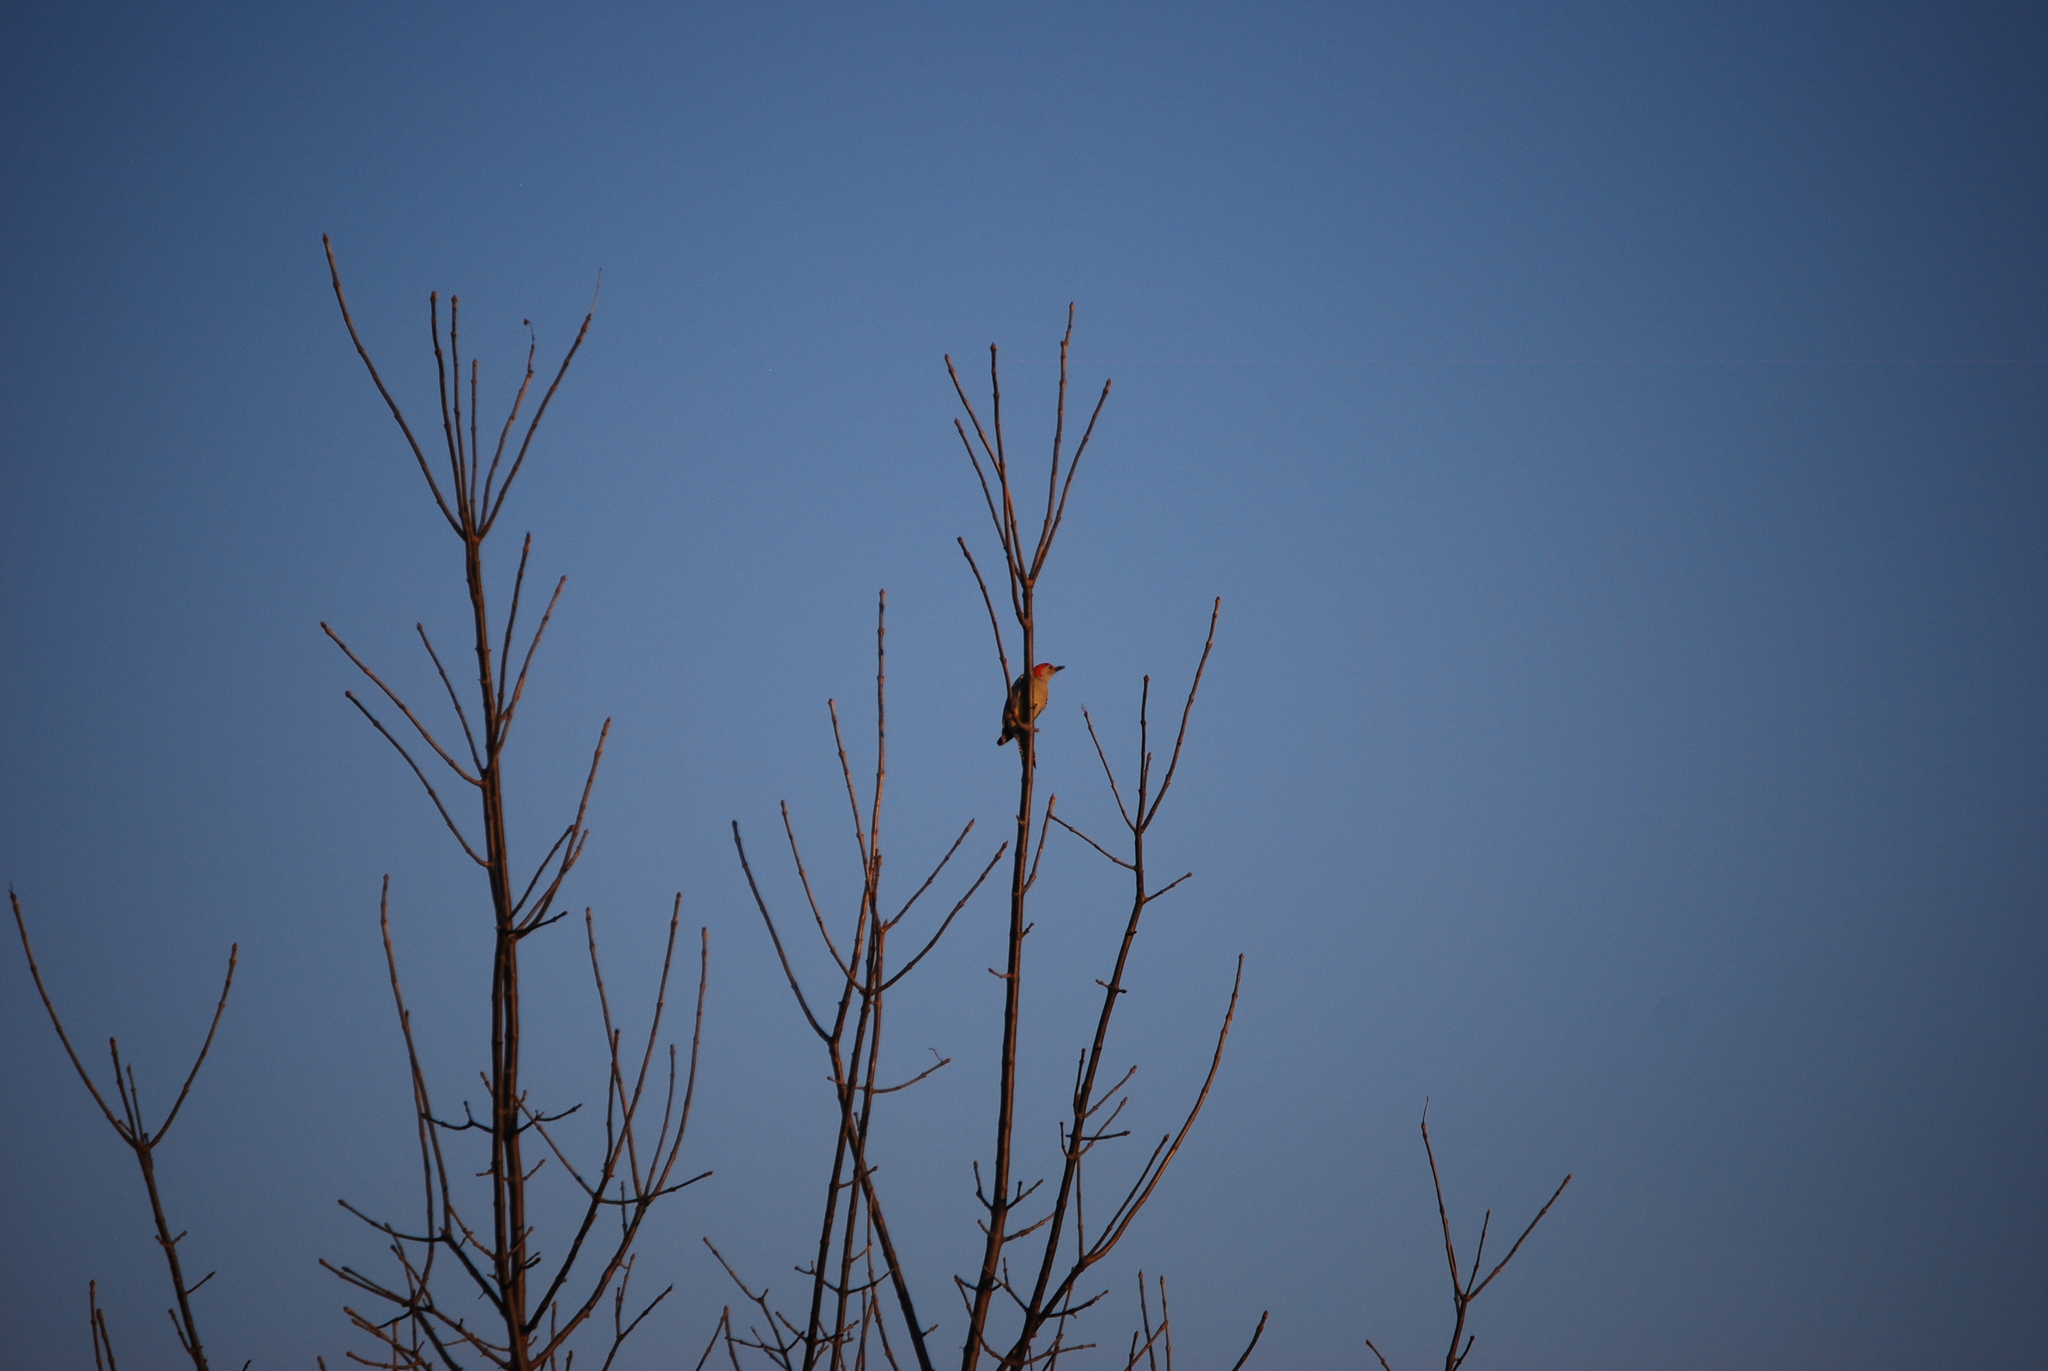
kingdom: Animalia
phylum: Chordata
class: Aves
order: Piciformes
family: Picidae
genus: Melanerpes
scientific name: Melanerpes carolinus
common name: Red-bellied woodpecker
